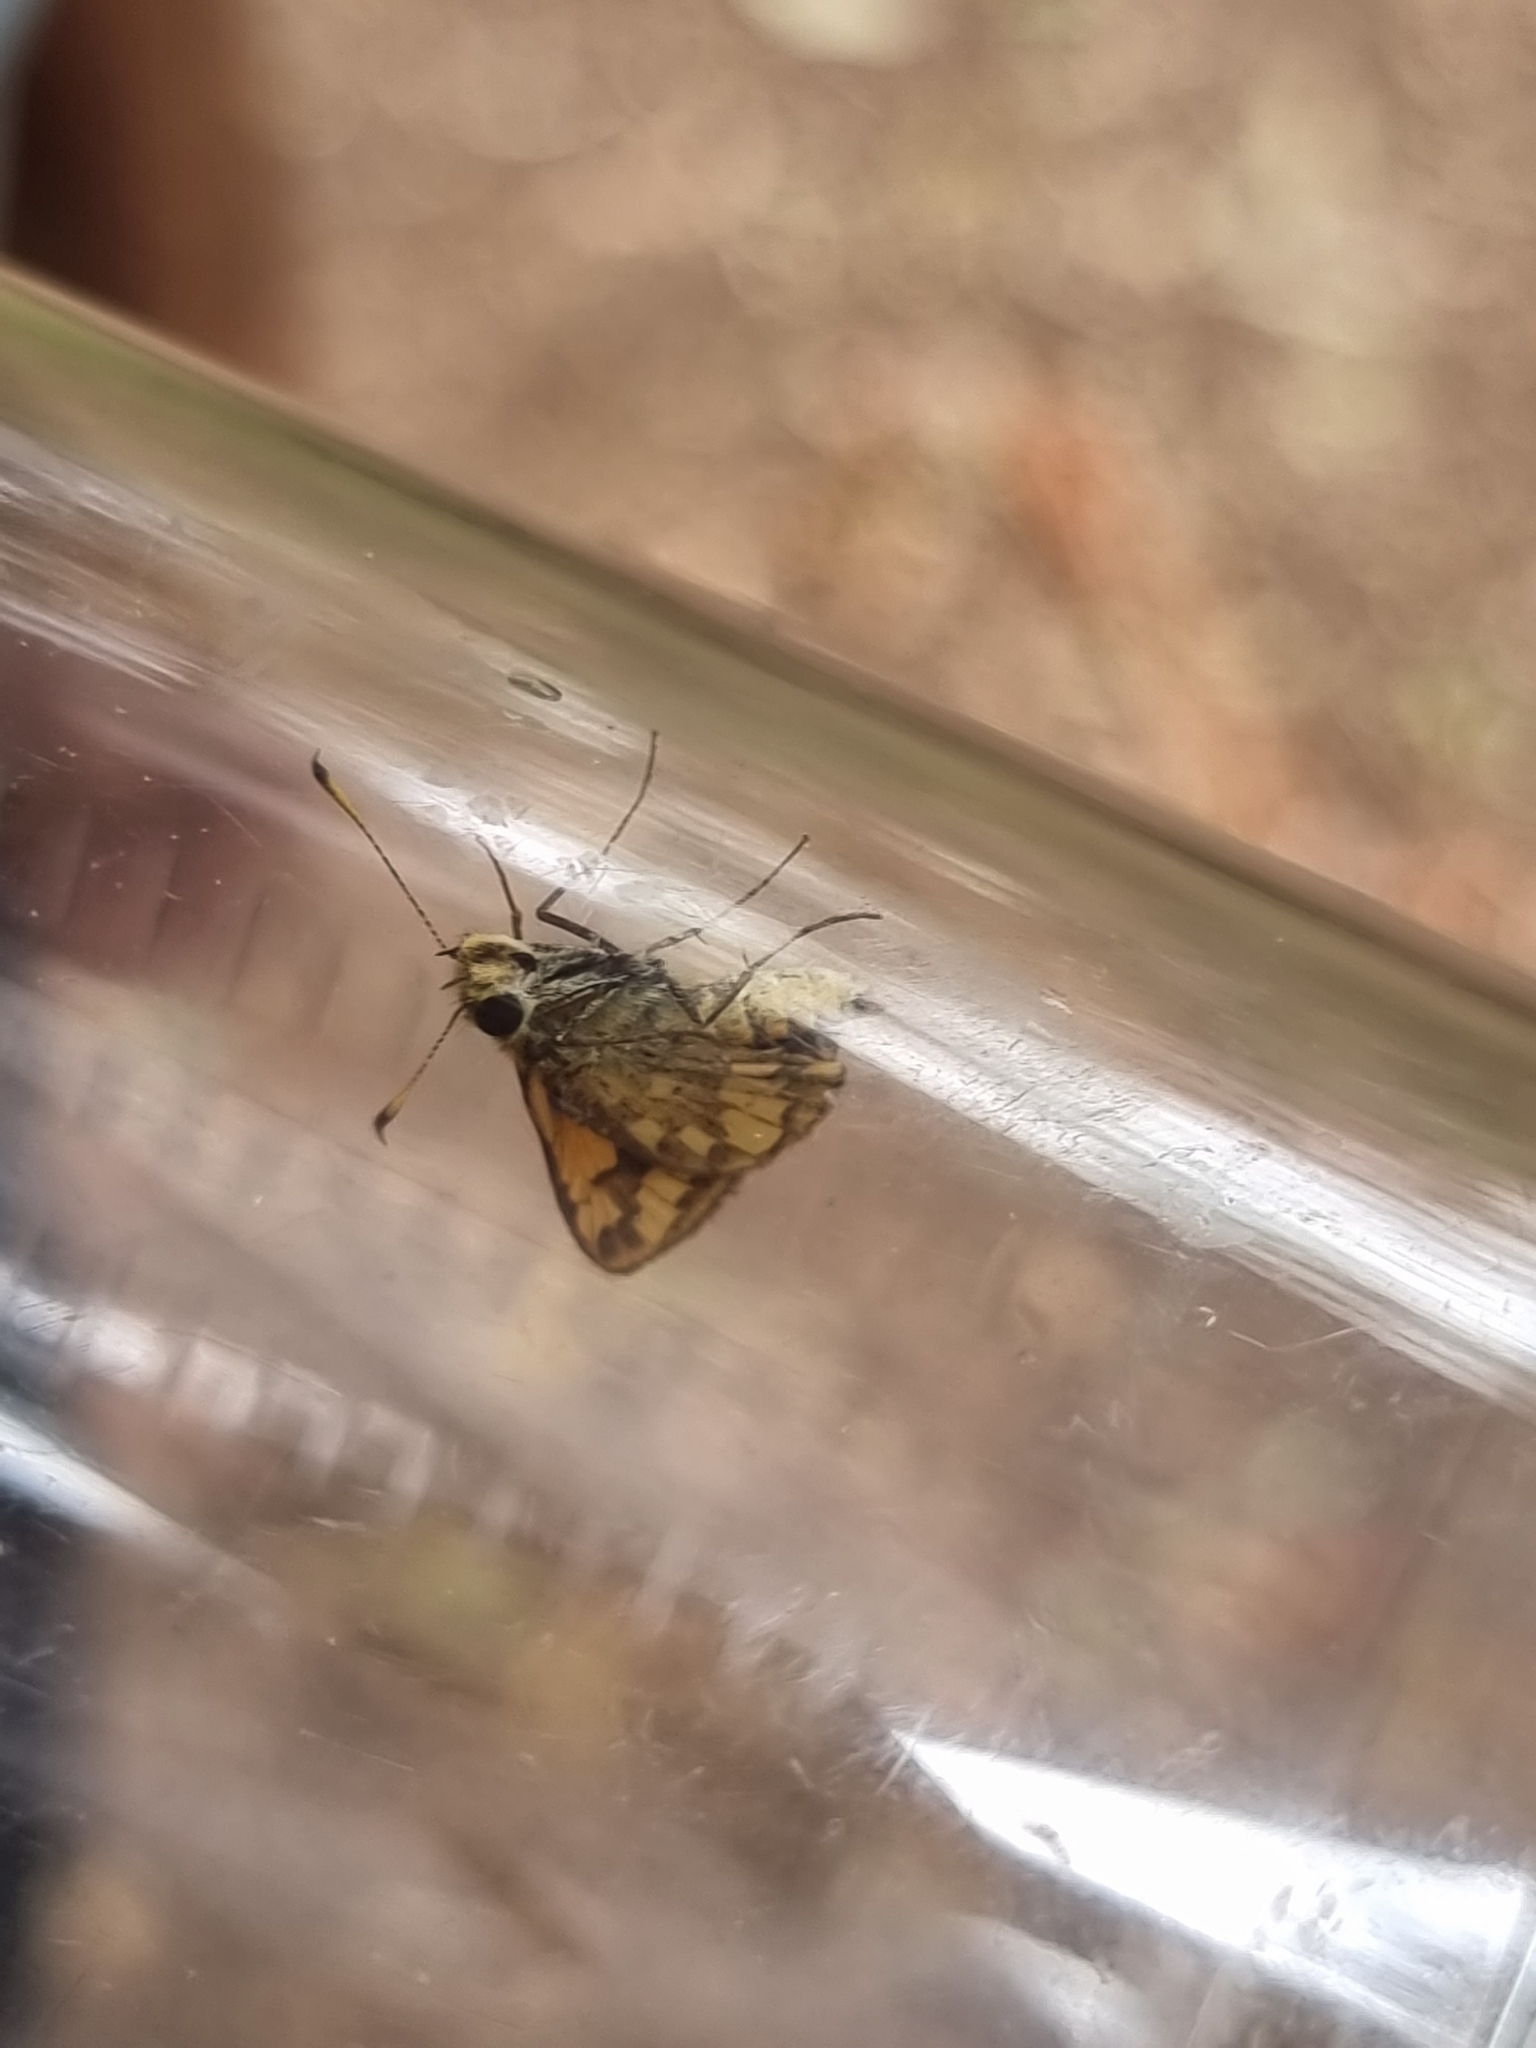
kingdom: Animalia
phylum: Arthropoda
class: Insecta
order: Lepidoptera
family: Hesperiidae
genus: Suniana
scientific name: Suniana sunias
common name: Wide-brand grass-dart
